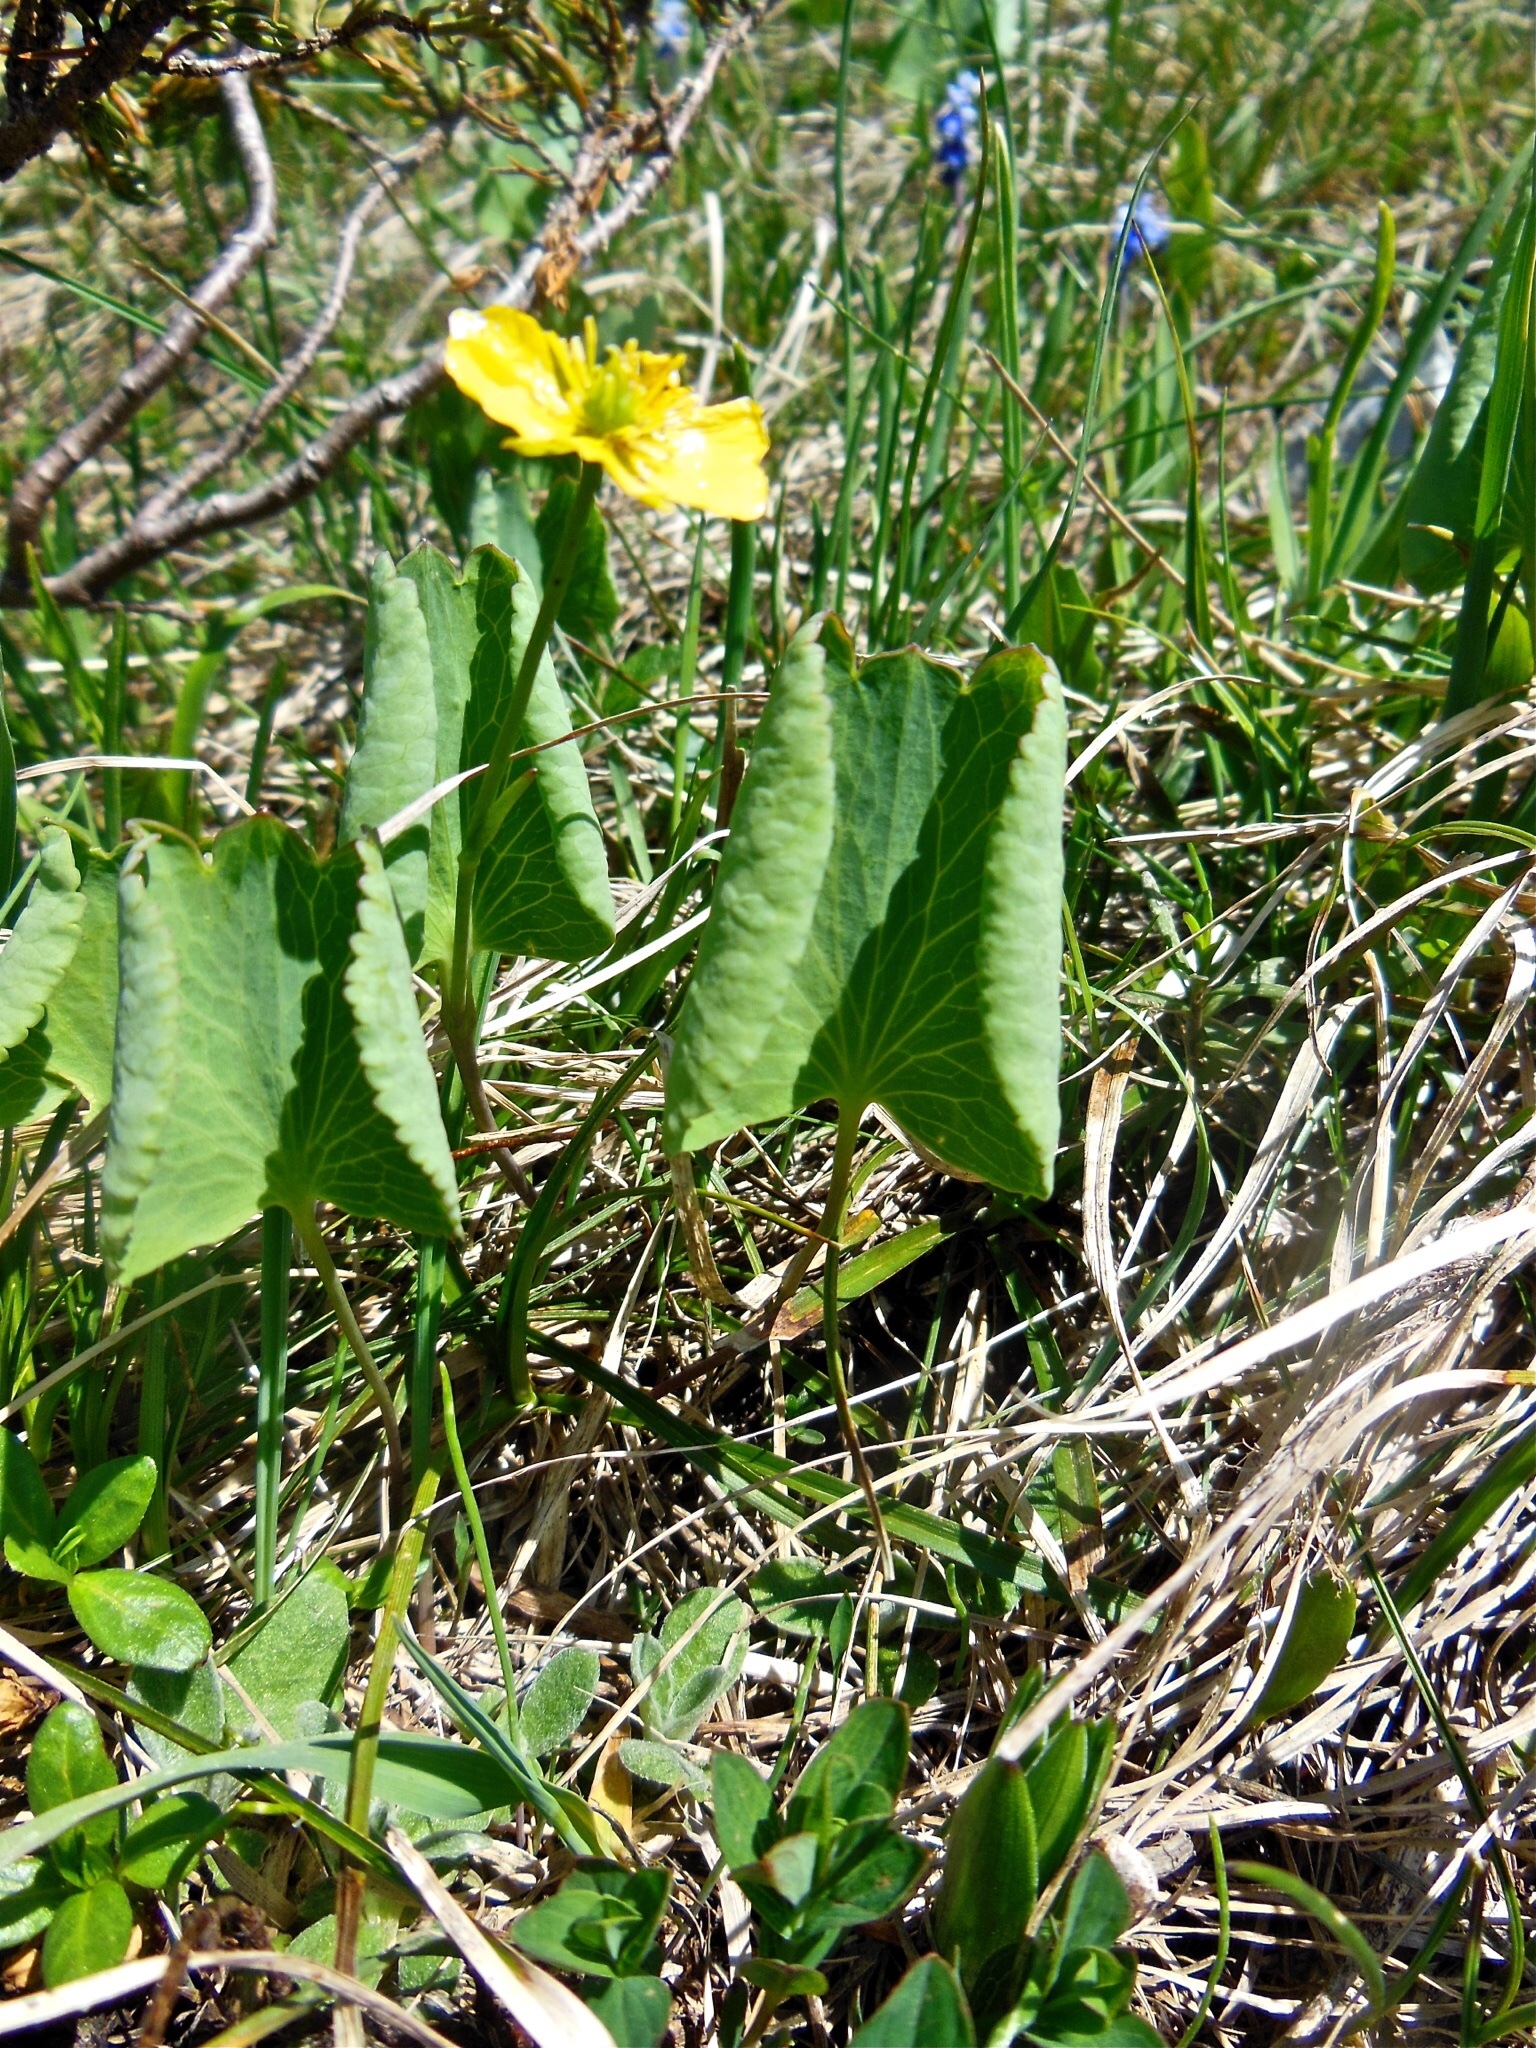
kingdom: Plantae
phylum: Tracheophyta
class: Magnoliopsida
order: Ranunculales
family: Ranunculaceae
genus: Ranunculus
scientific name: Ranunculus thora
